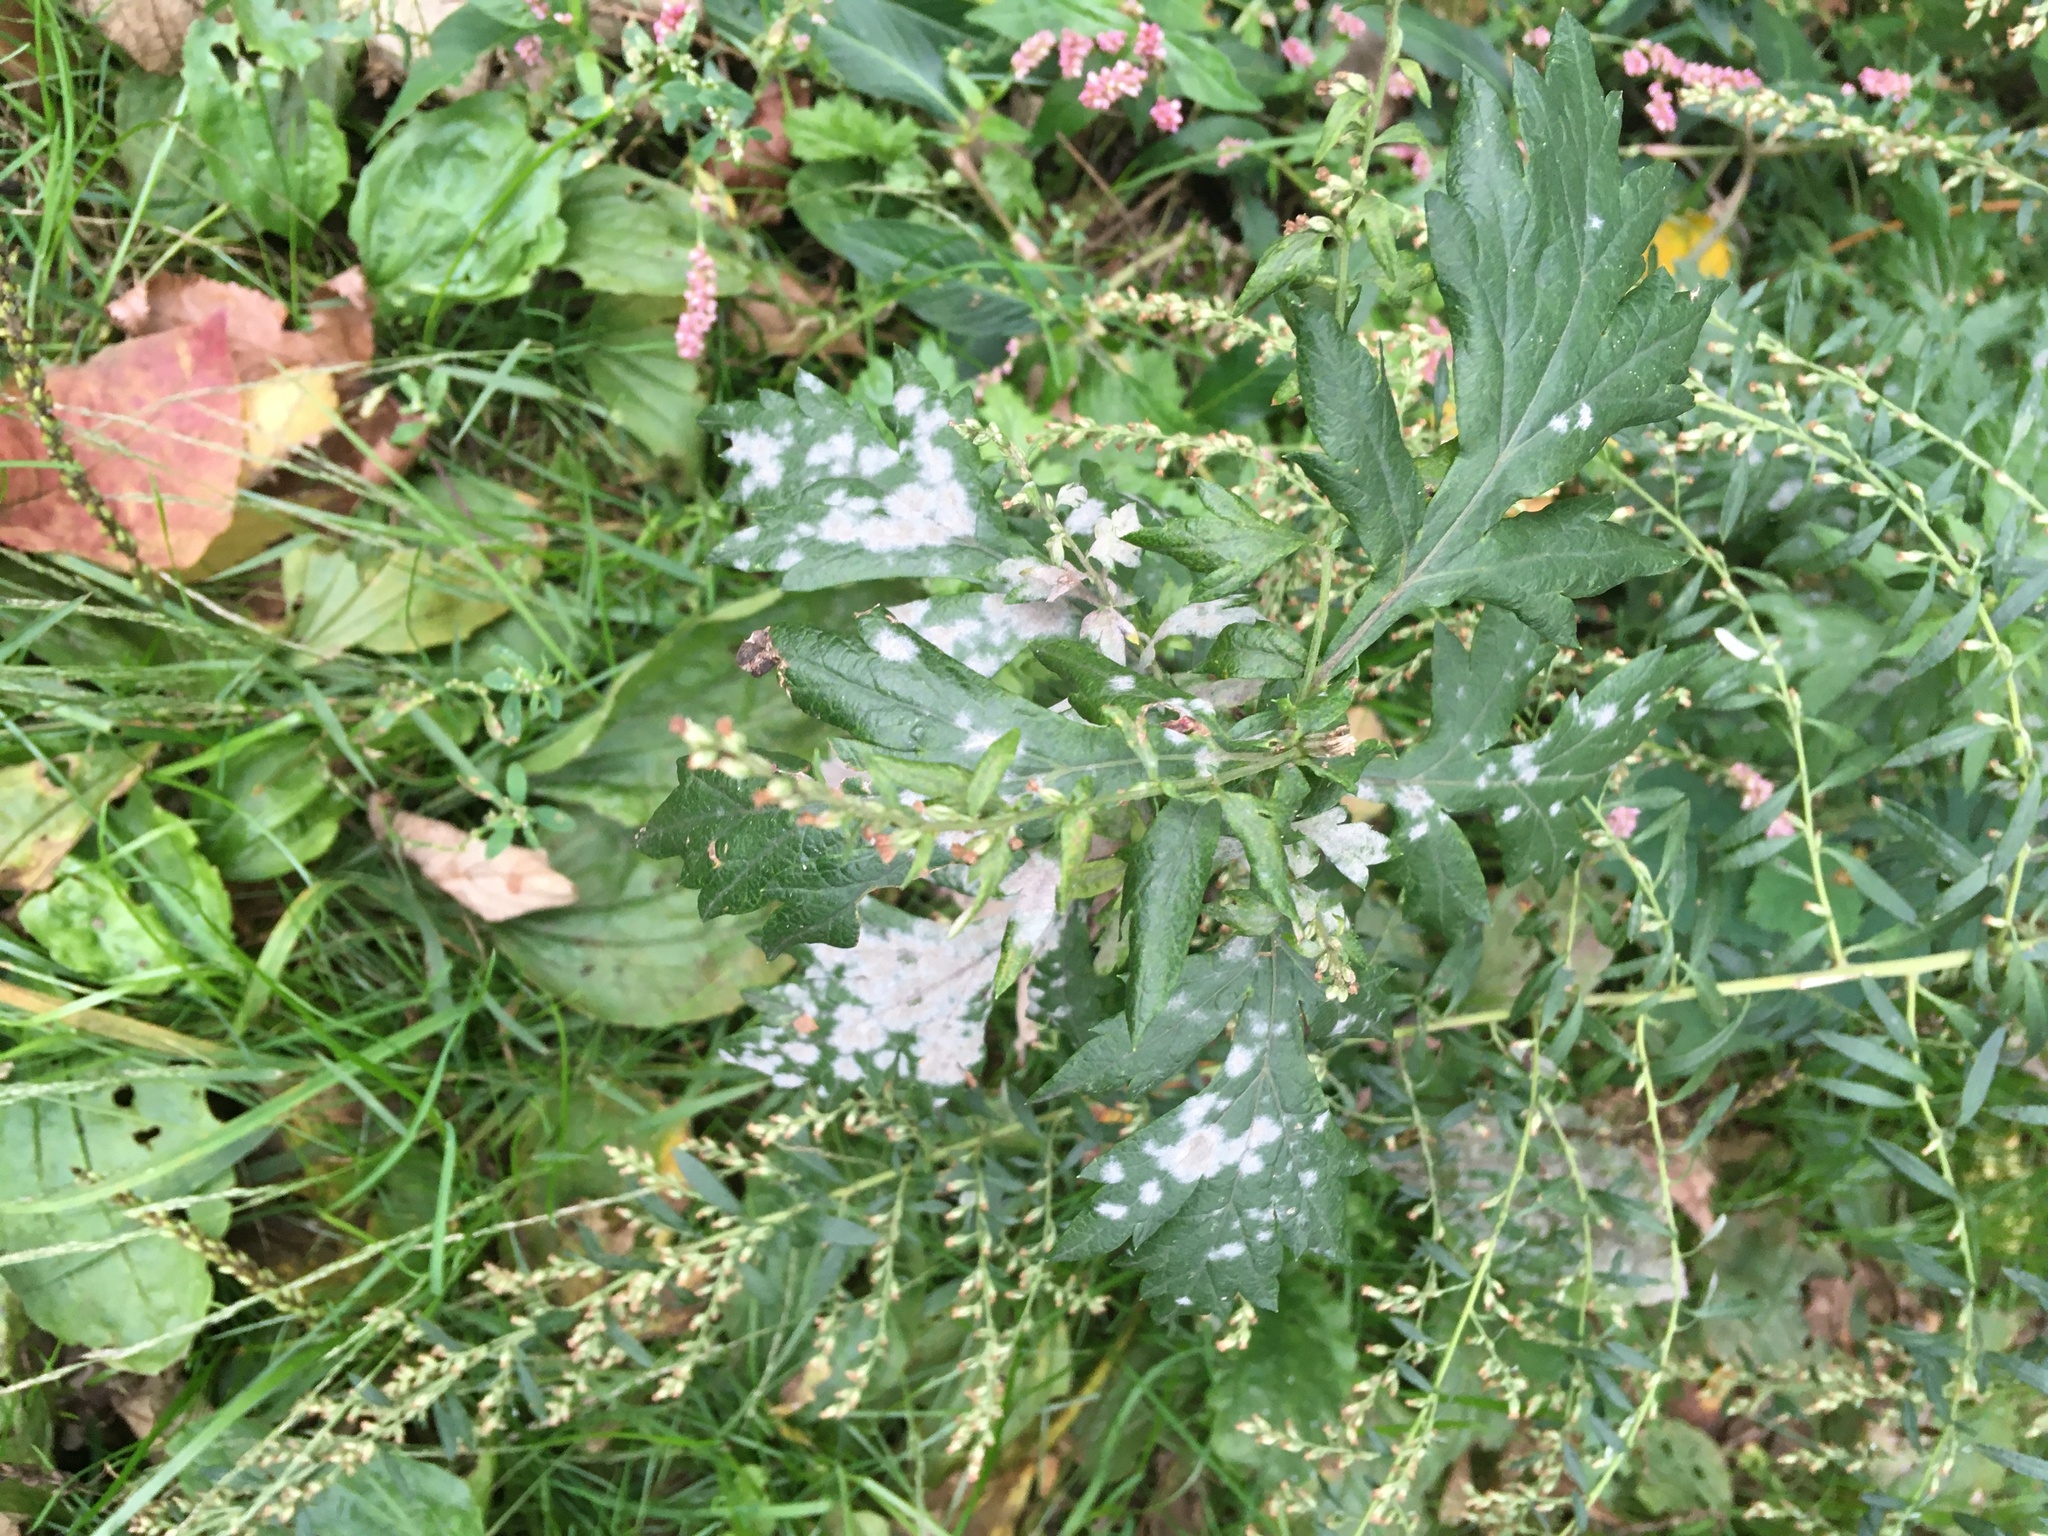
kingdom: Plantae
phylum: Tracheophyta
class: Magnoliopsida
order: Asterales
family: Asteraceae
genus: Artemisia
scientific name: Artemisia vulgaris
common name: Mugwort
